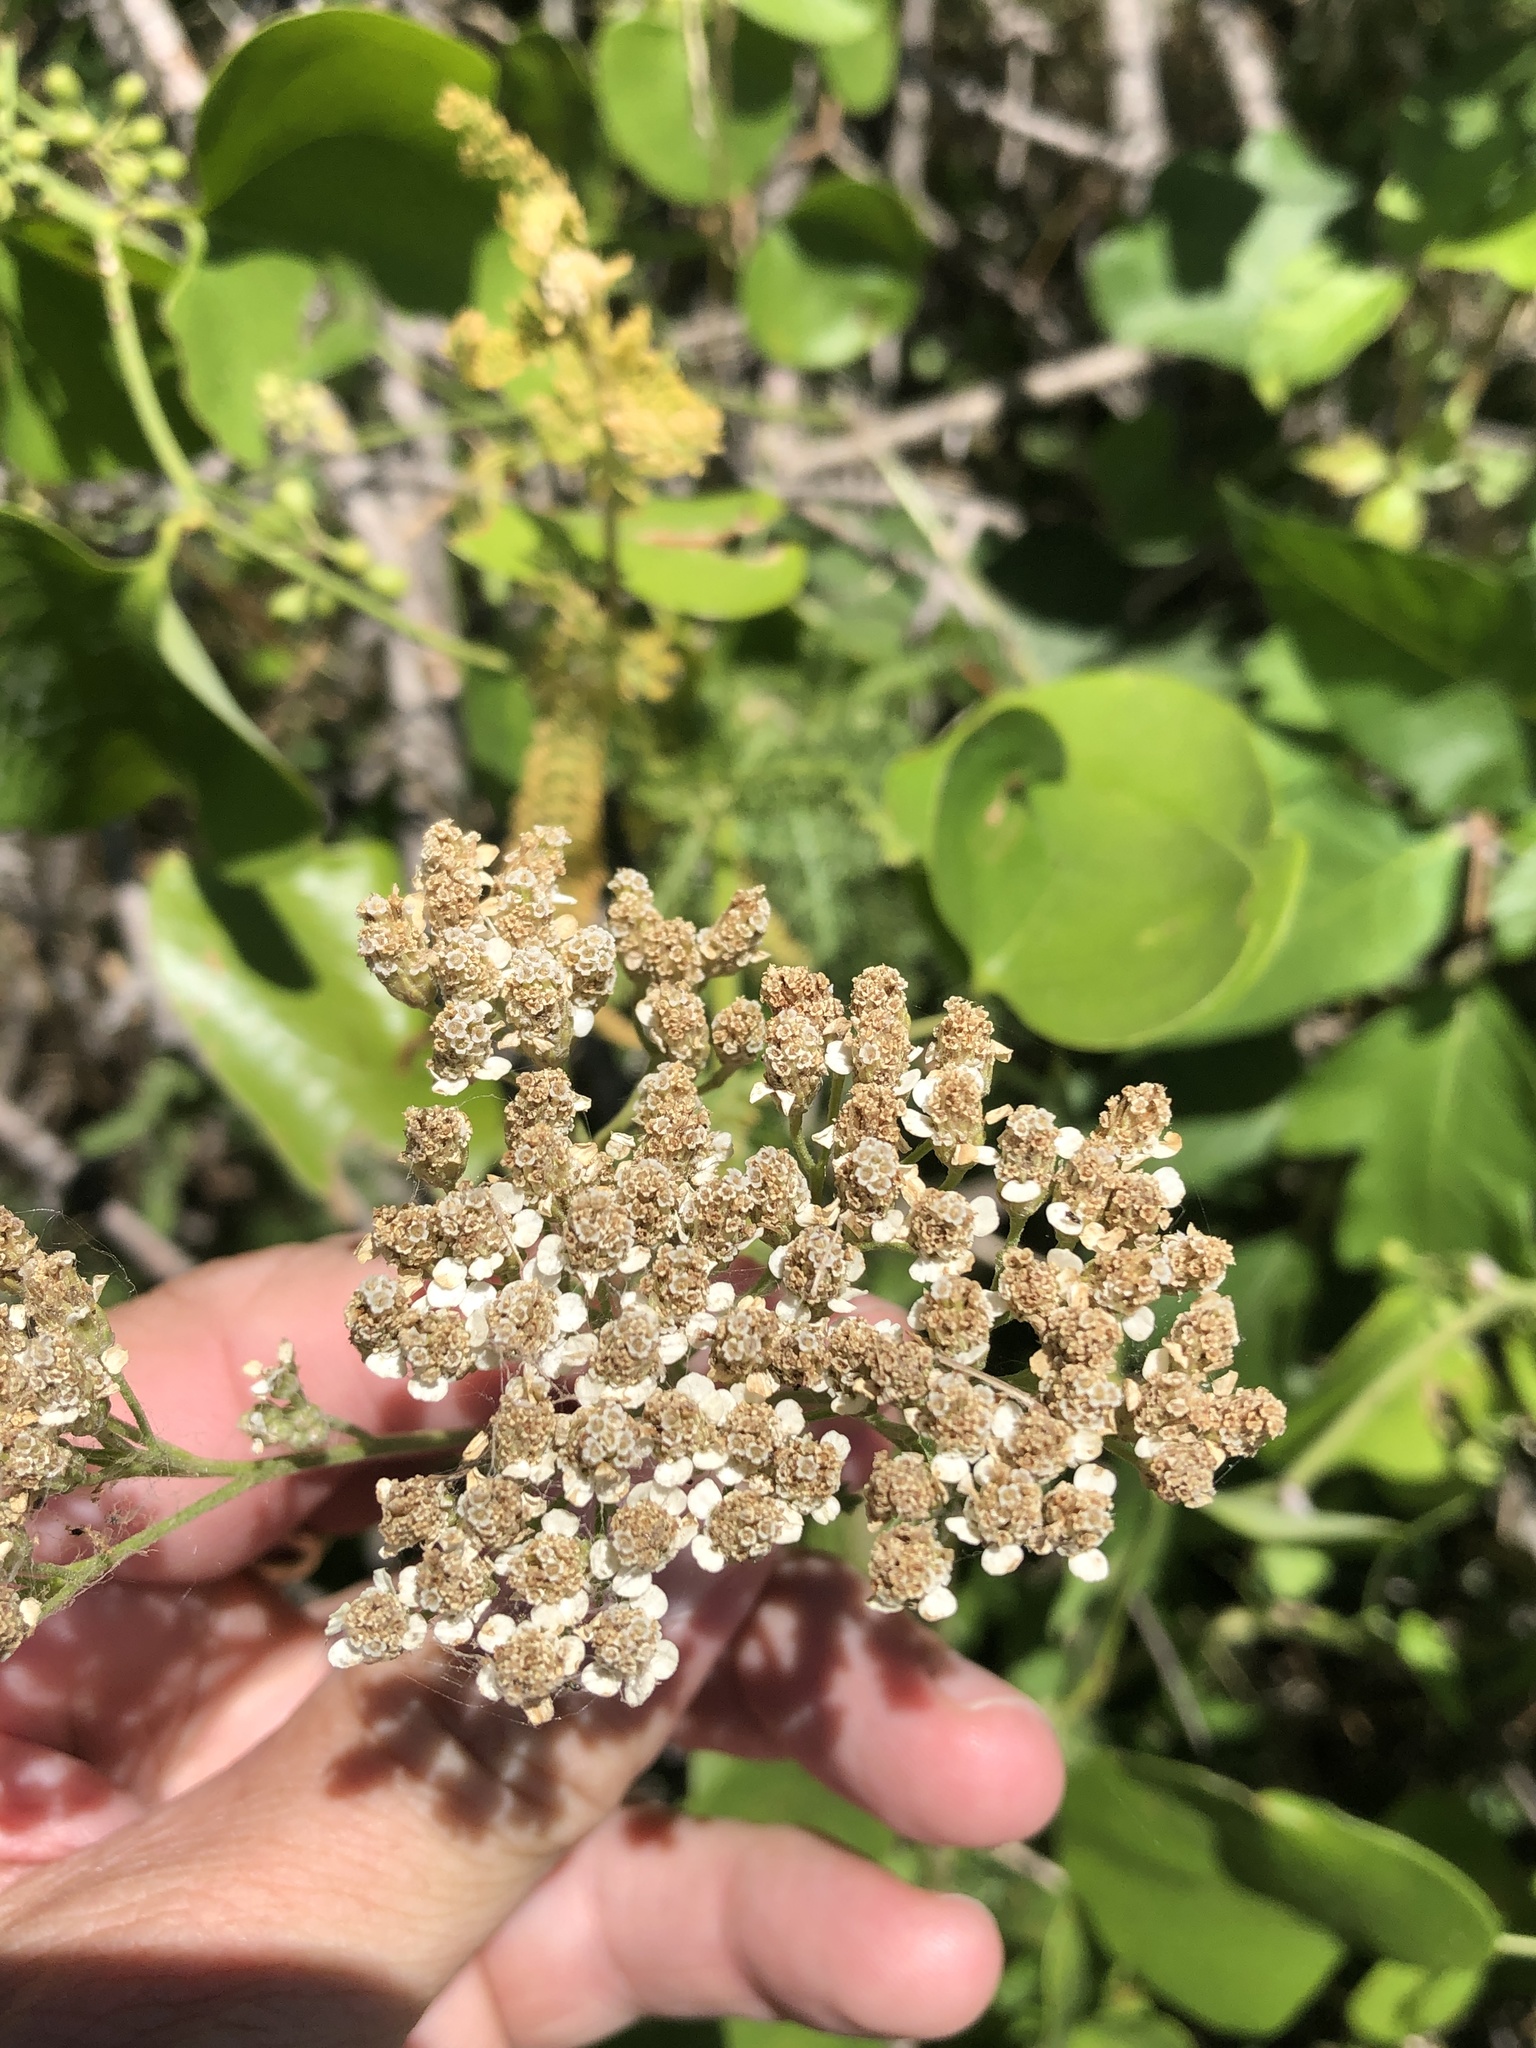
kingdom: Plantae
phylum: Tracheophyta
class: Magnoliopsida
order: Asterales
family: Asteraceae
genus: Achillea
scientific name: Achillea millefolium
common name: Yarrow
